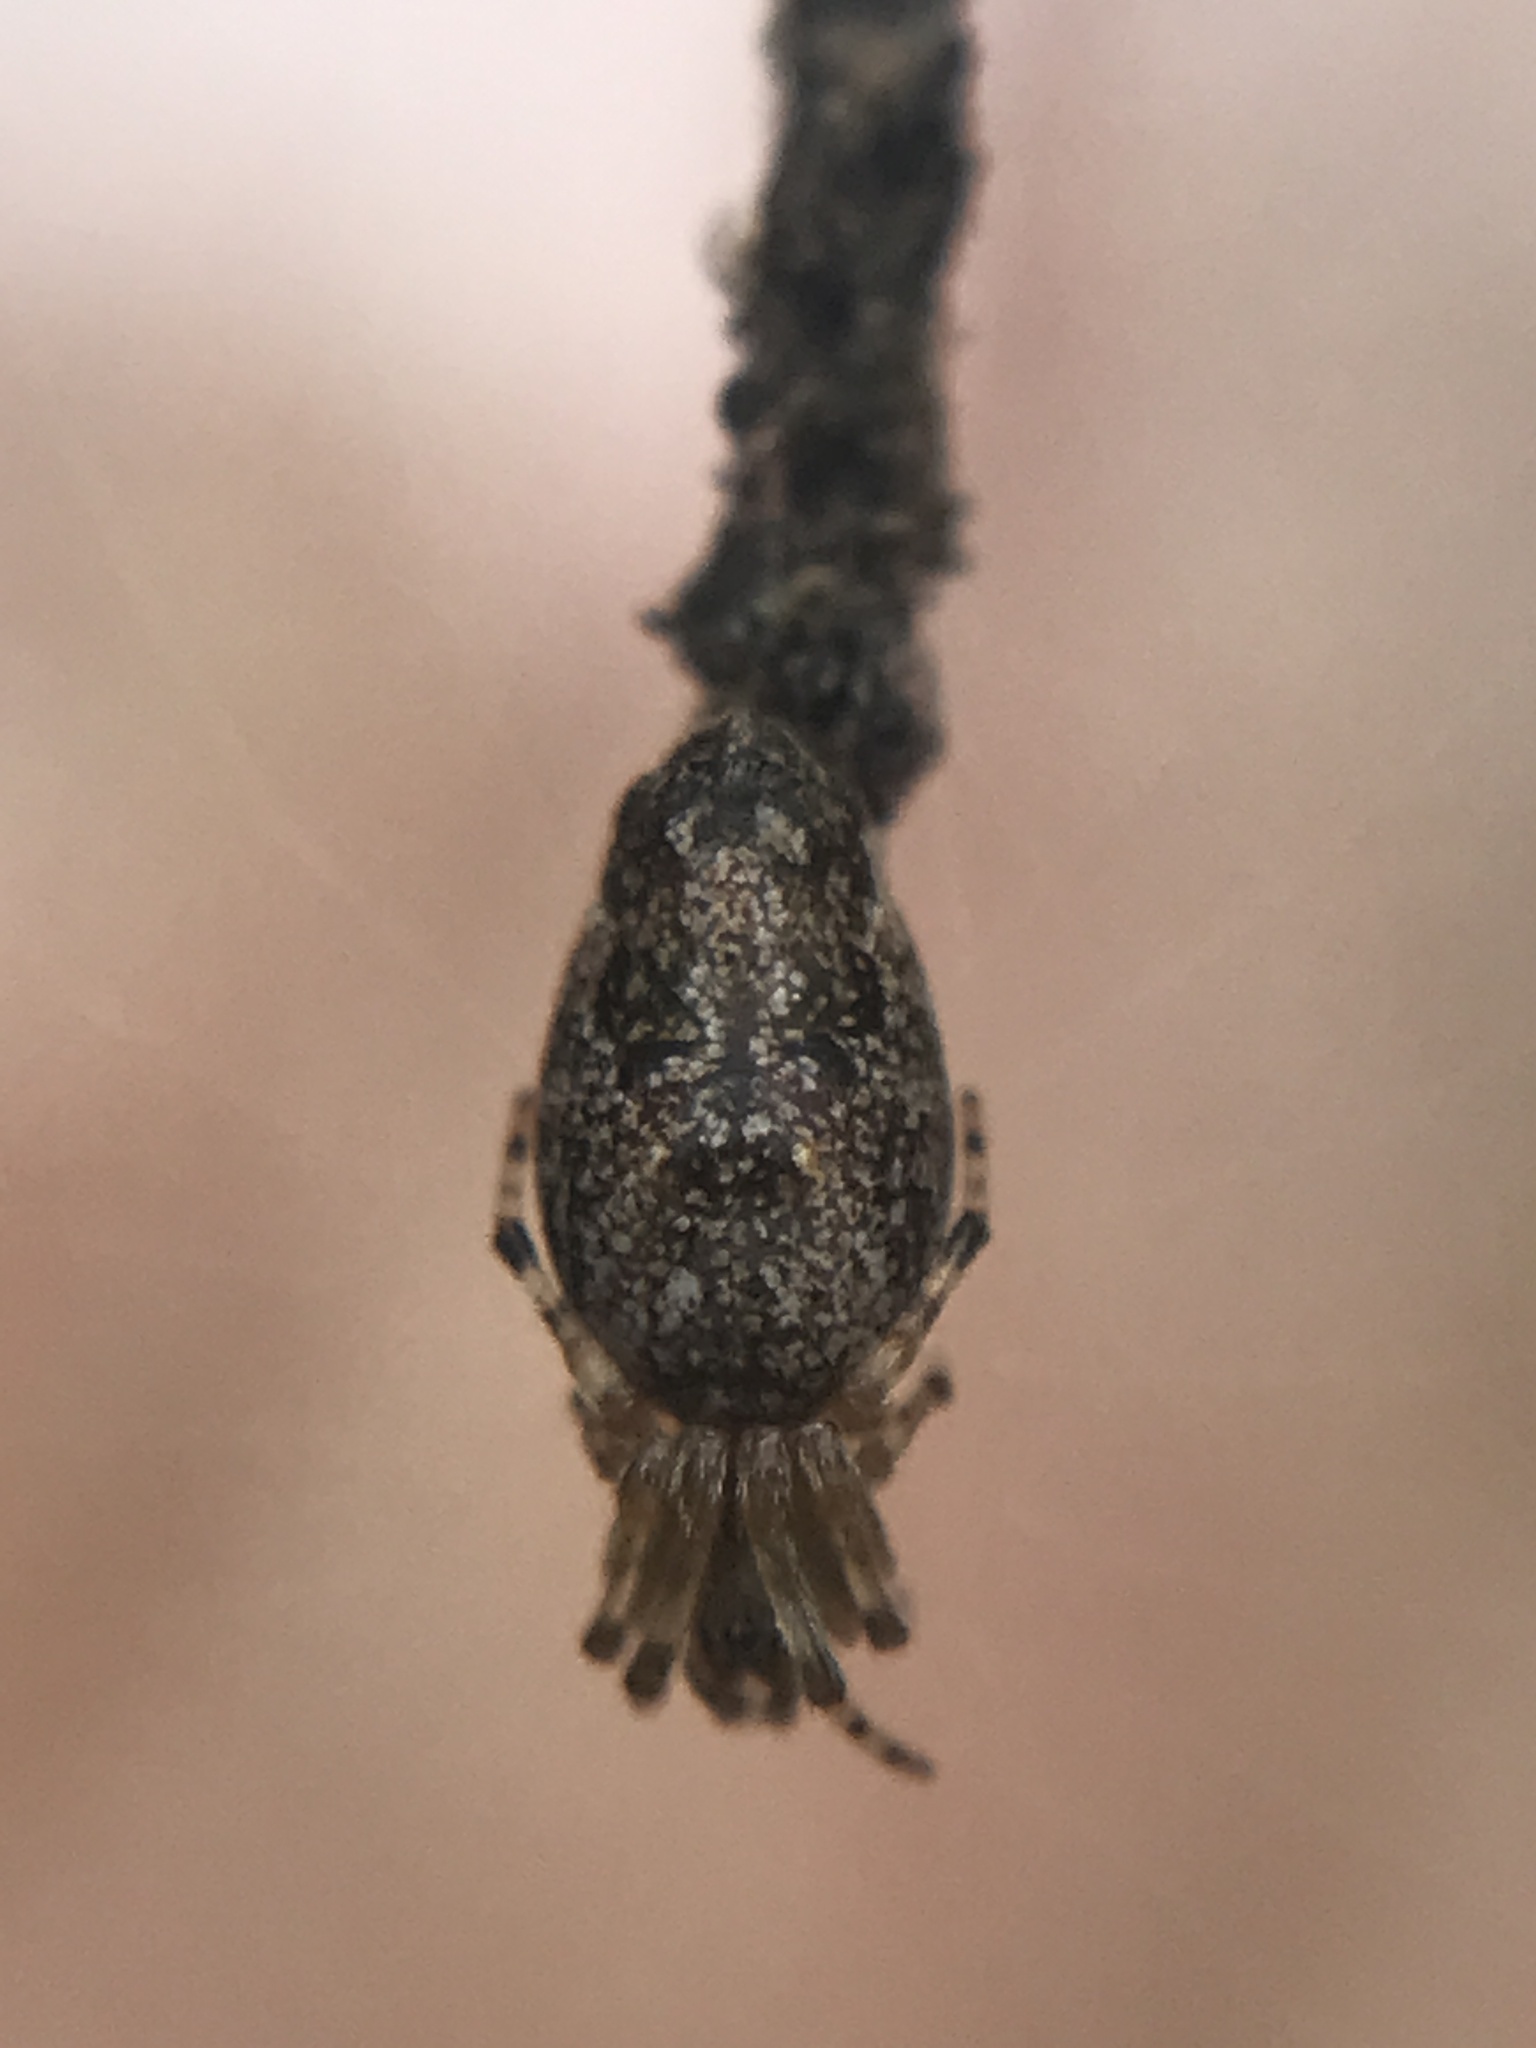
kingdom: Animalia
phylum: Arthropoda
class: Arachnida
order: Araneae
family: Araneidae
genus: Cyclosa
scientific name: Cyclosa machadinho
